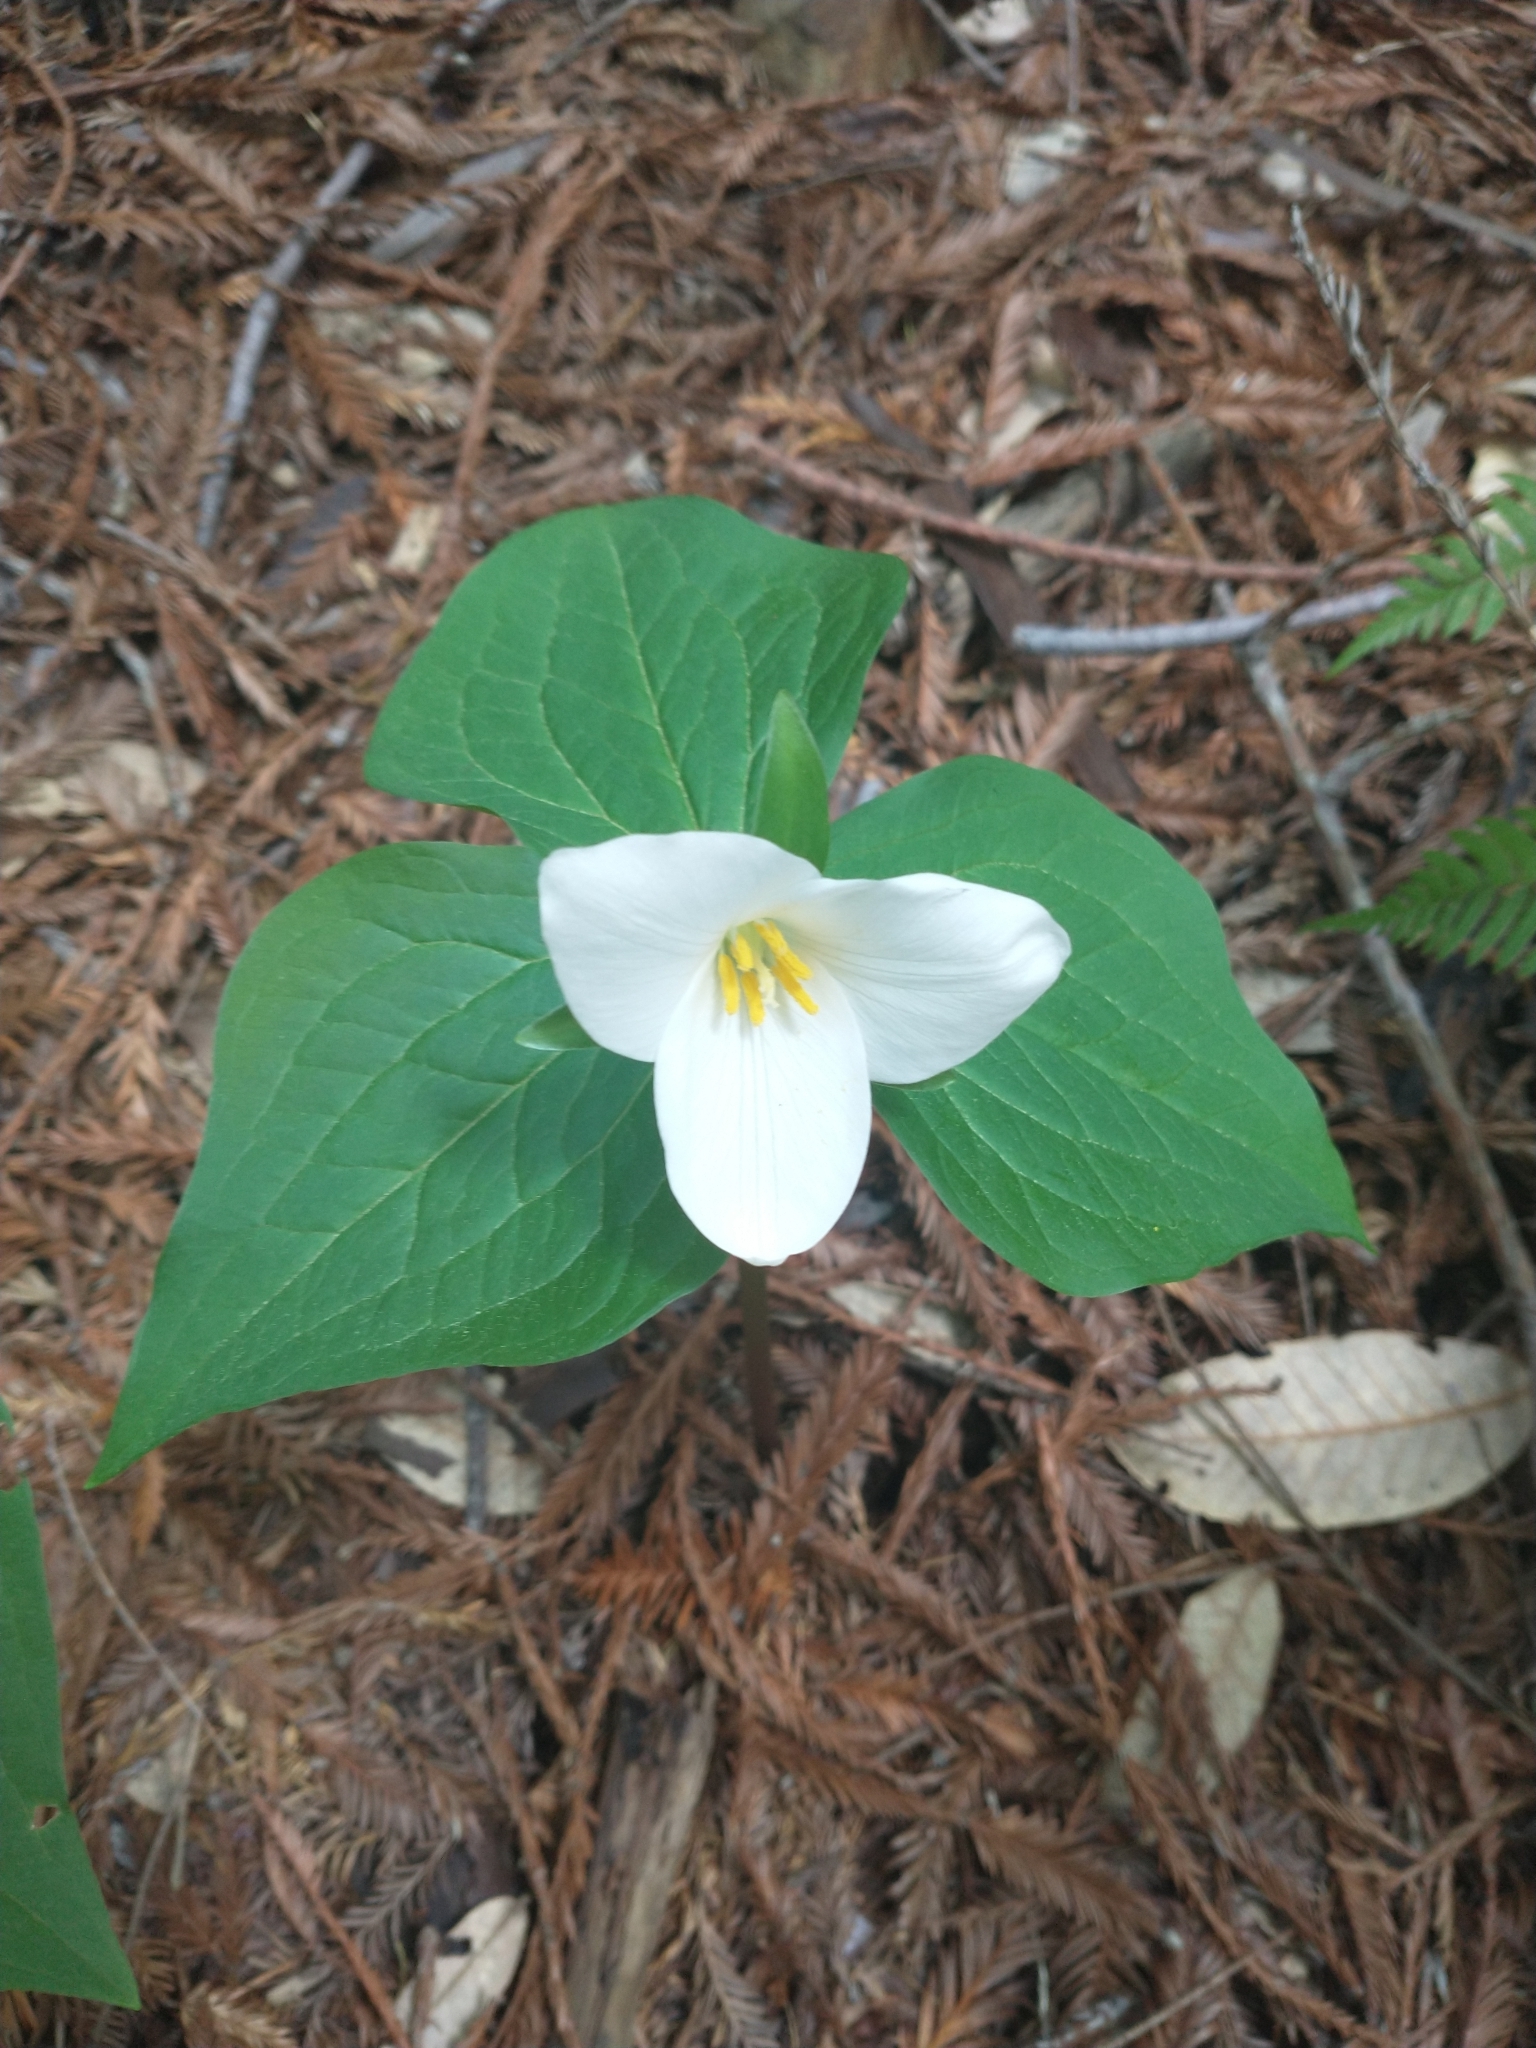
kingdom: Plantae
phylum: Tracheophyta
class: Liliopsida
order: Liliales
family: Melanthiaceae
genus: Trillium
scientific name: Trillium ovatum
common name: Pacific trillium
